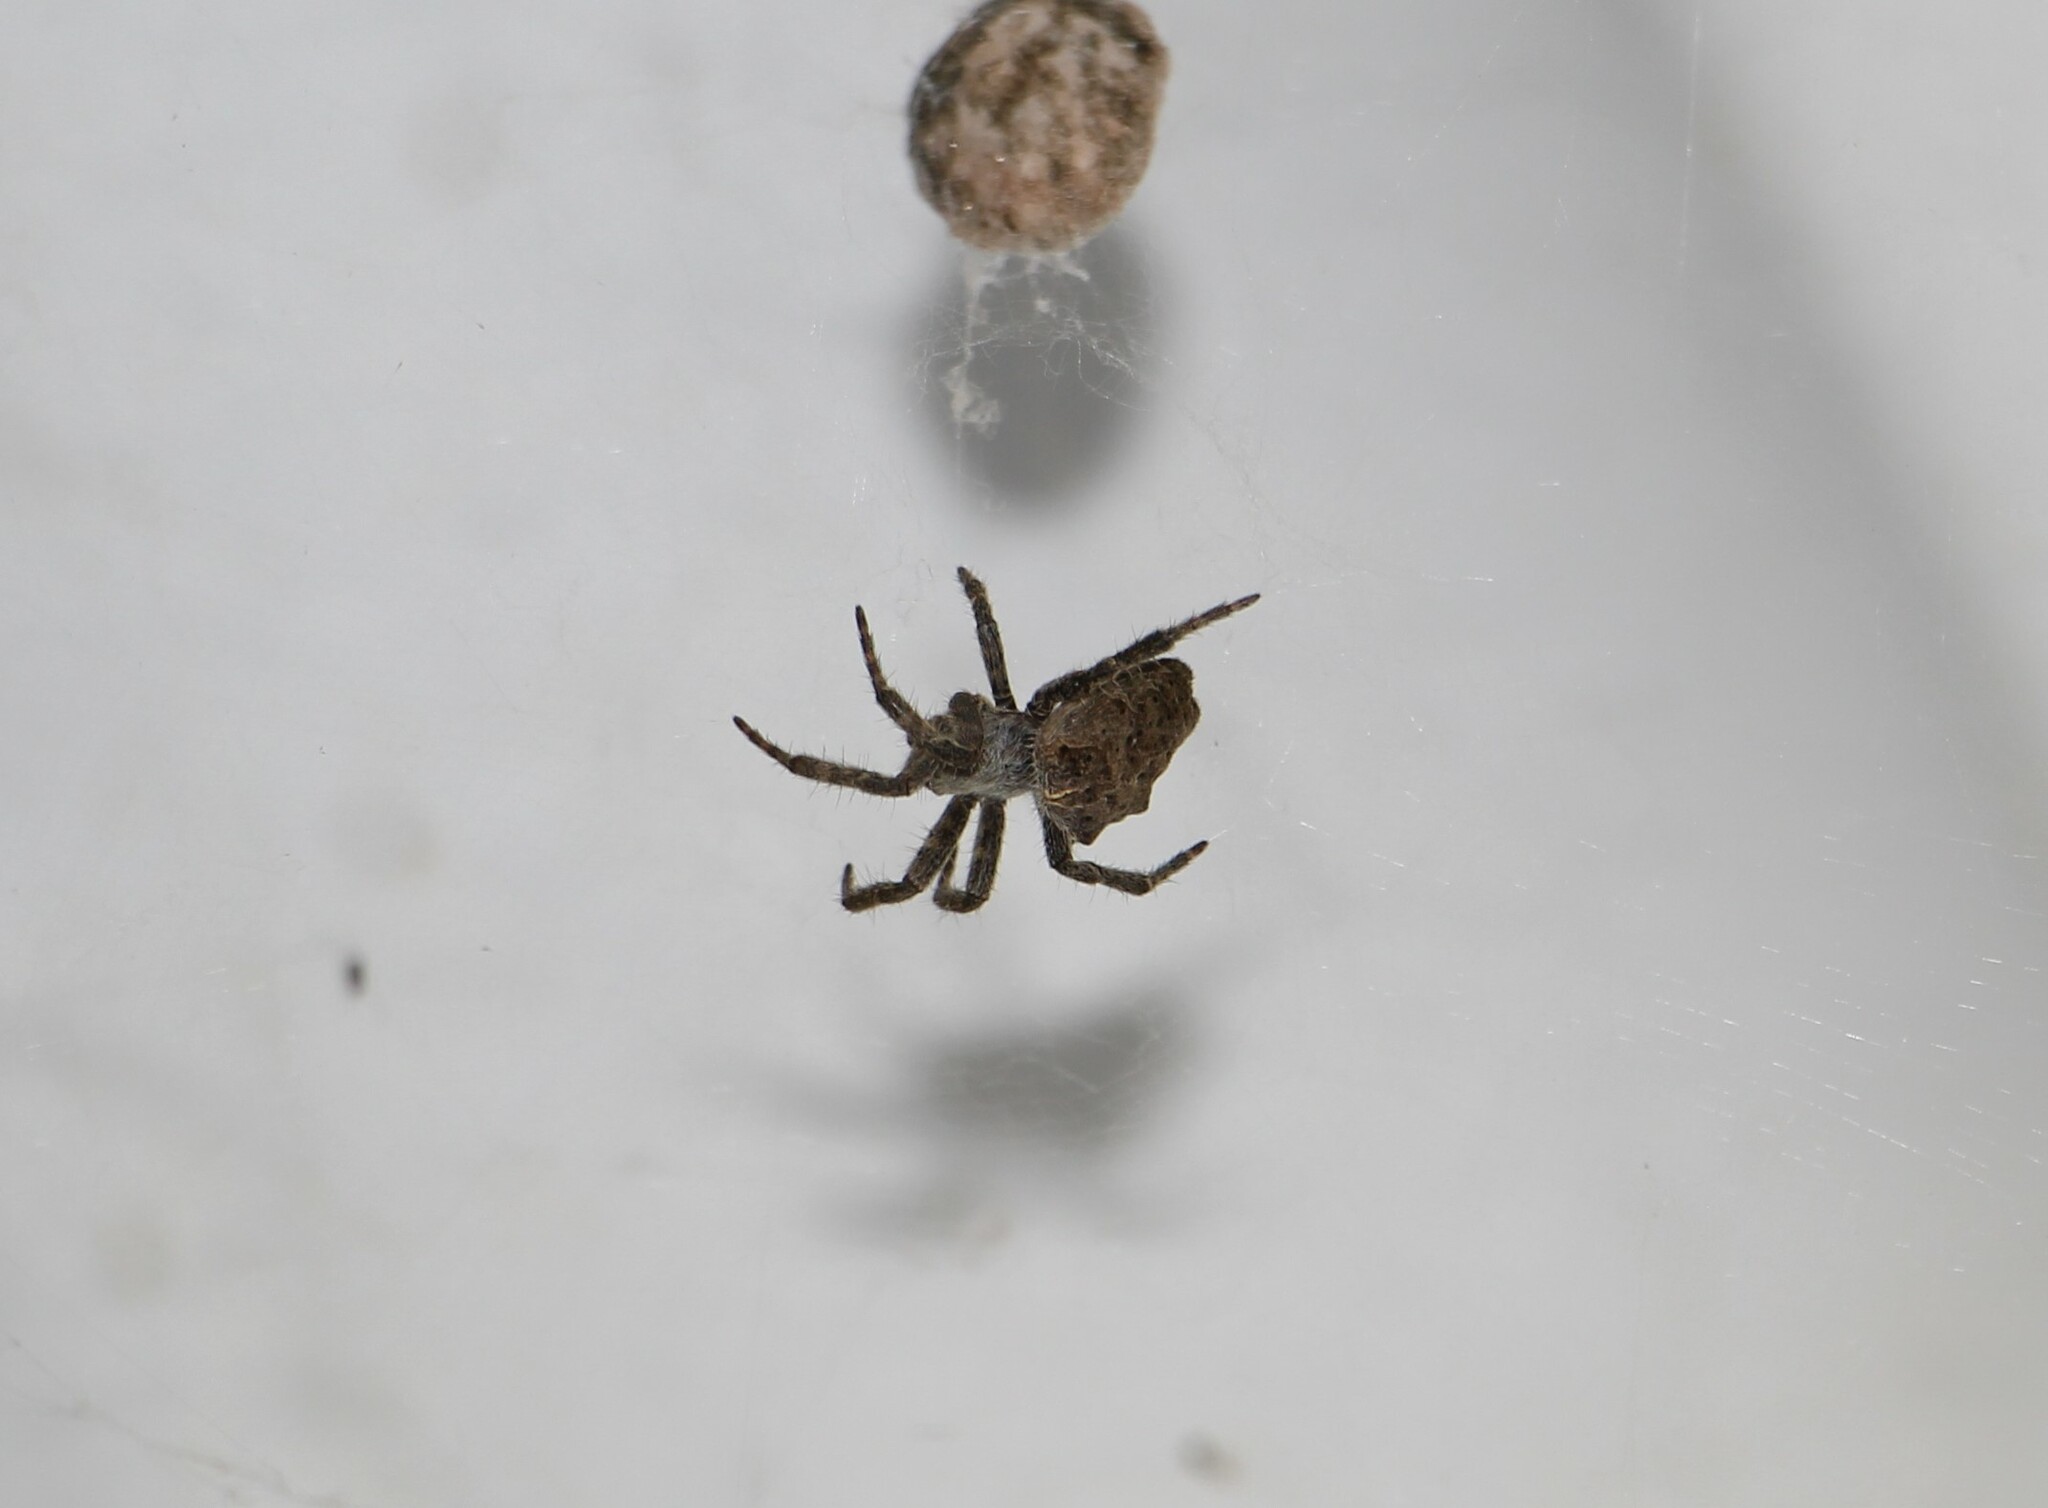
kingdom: Animalia
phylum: Arthropoda
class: Arachnida
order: Araneae
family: Araneidae
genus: Cyrtophora
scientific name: Cyrtophora citricola
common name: Orb weavers
